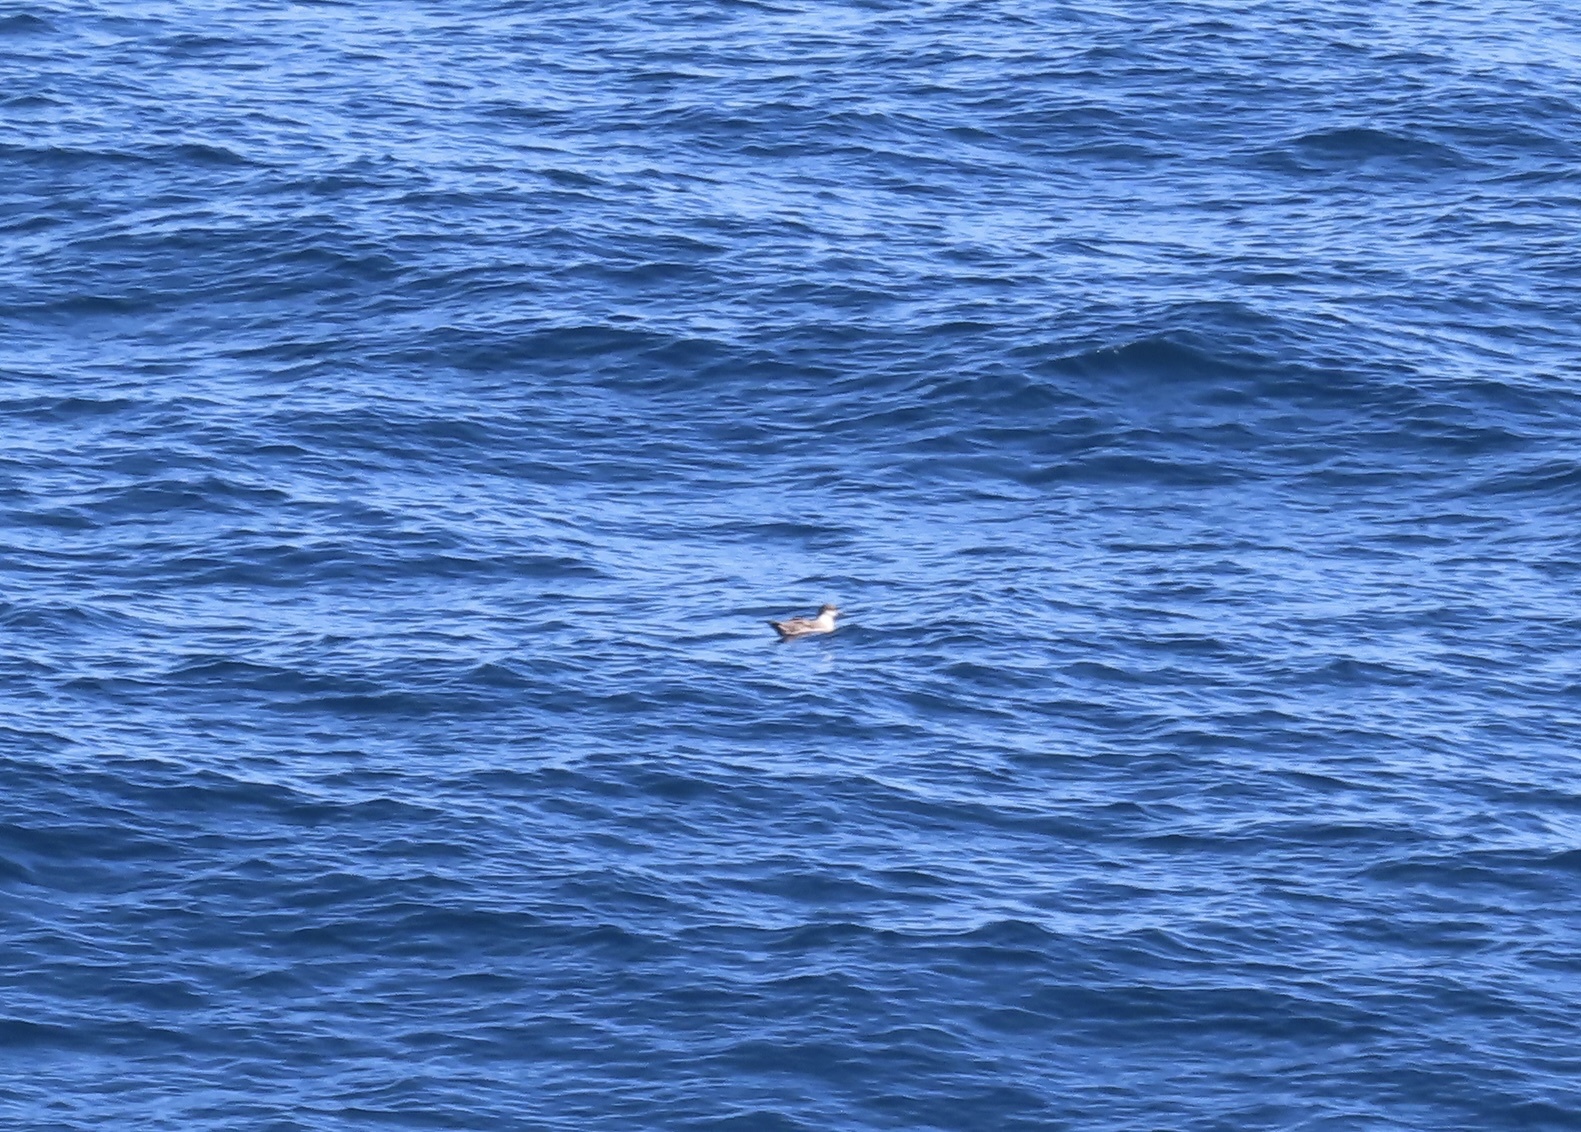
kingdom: Animalia
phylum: Chordata
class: Aves
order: Procellariiformes
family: Procellariidae
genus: Puffinus
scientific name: Puffinus gravis
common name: Great shearwater
